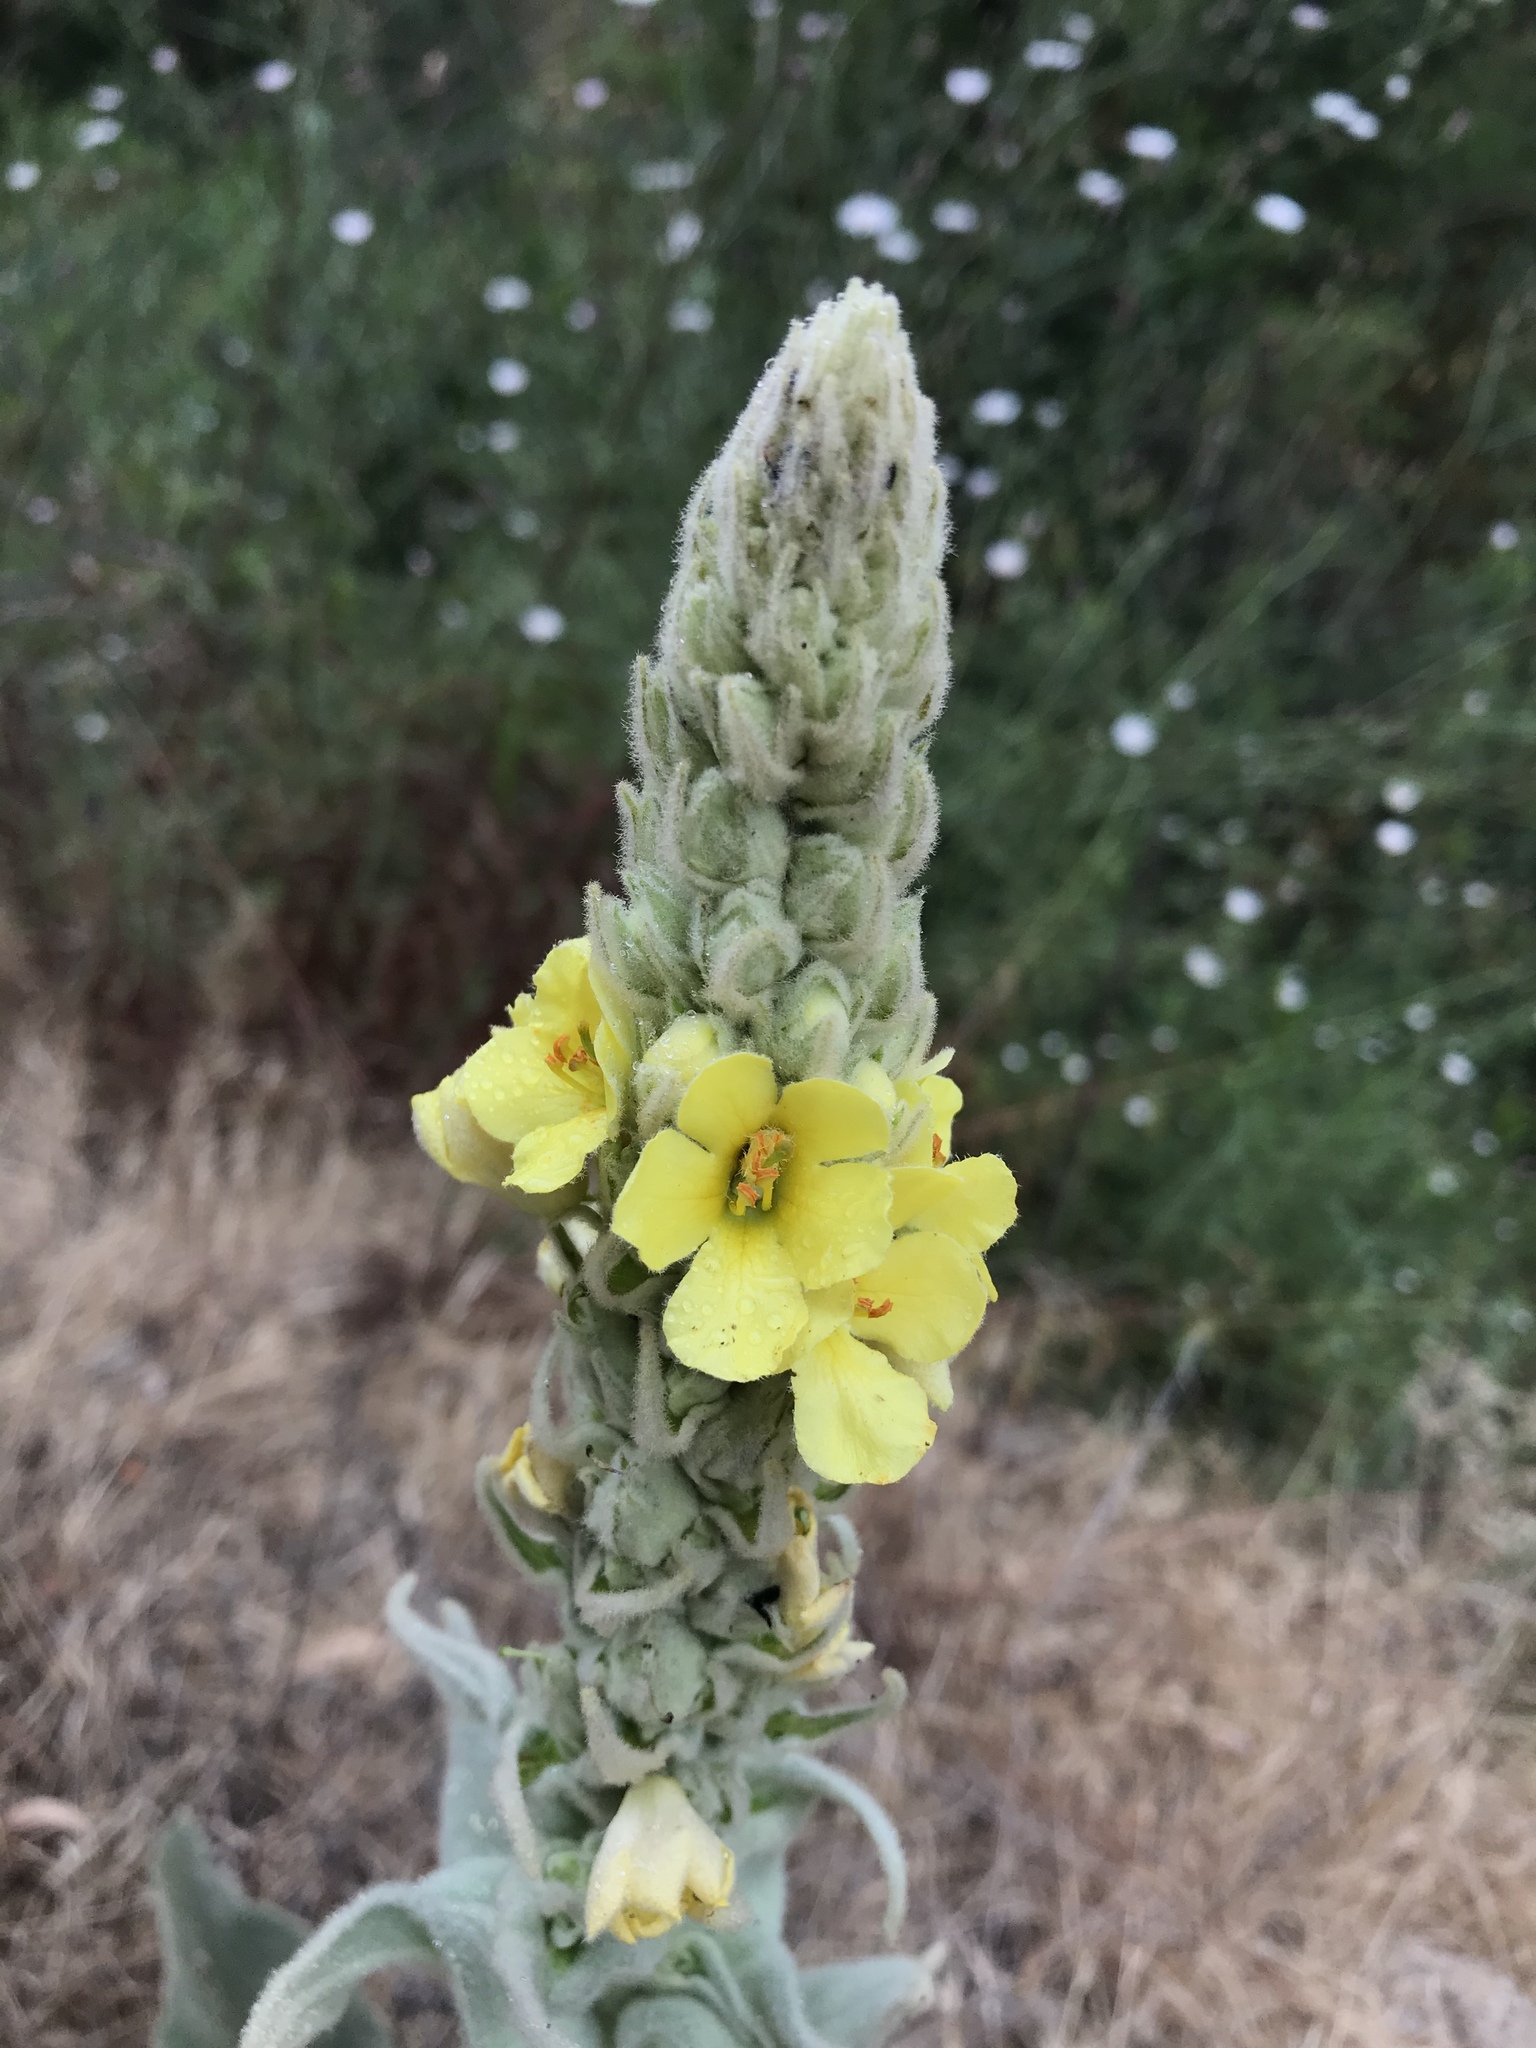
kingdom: Plantae
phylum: Tracheophyta
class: Magnoliopsida
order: Lamiales
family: Scrophulariaceae
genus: Verbascum
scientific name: Verbascum thapsus
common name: Common mullein
